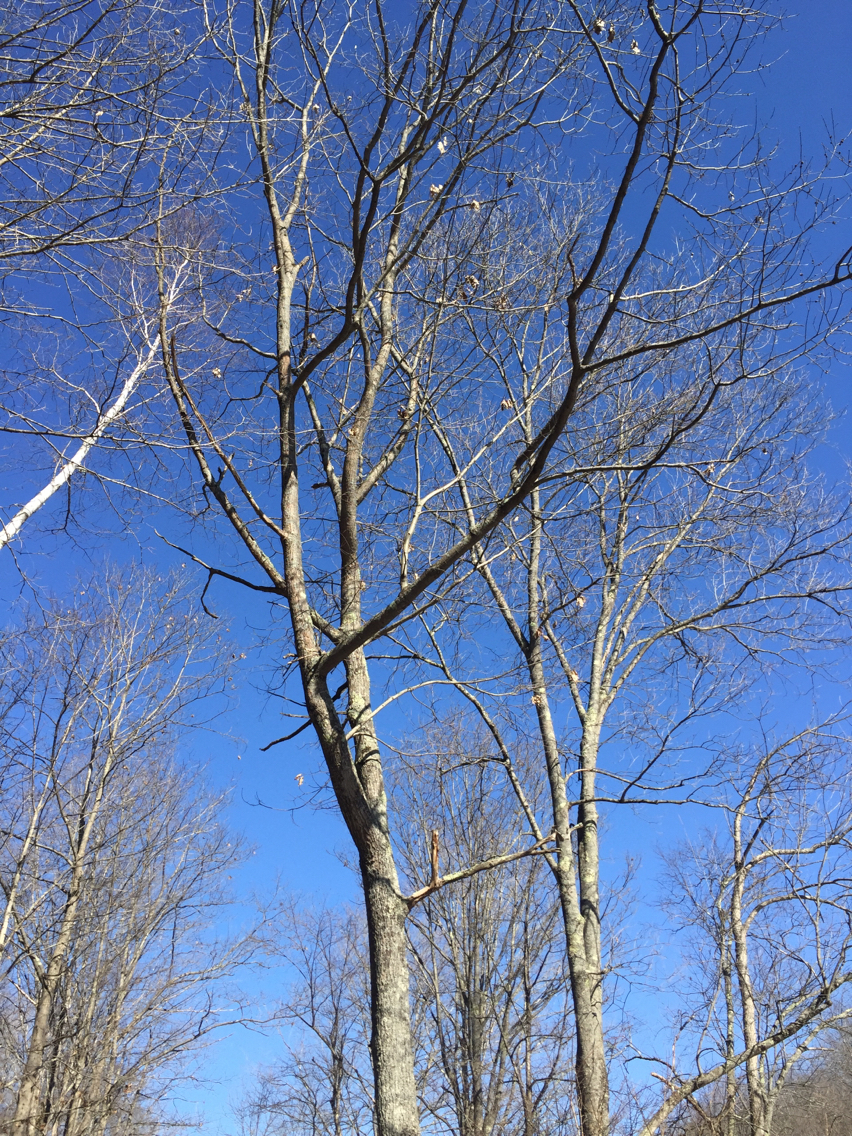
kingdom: Plantae
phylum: Tracheophyta
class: Magnoliopsida
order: Fagales
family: Fagaceae
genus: Quercus
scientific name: Quercus rubra
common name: Red oak
